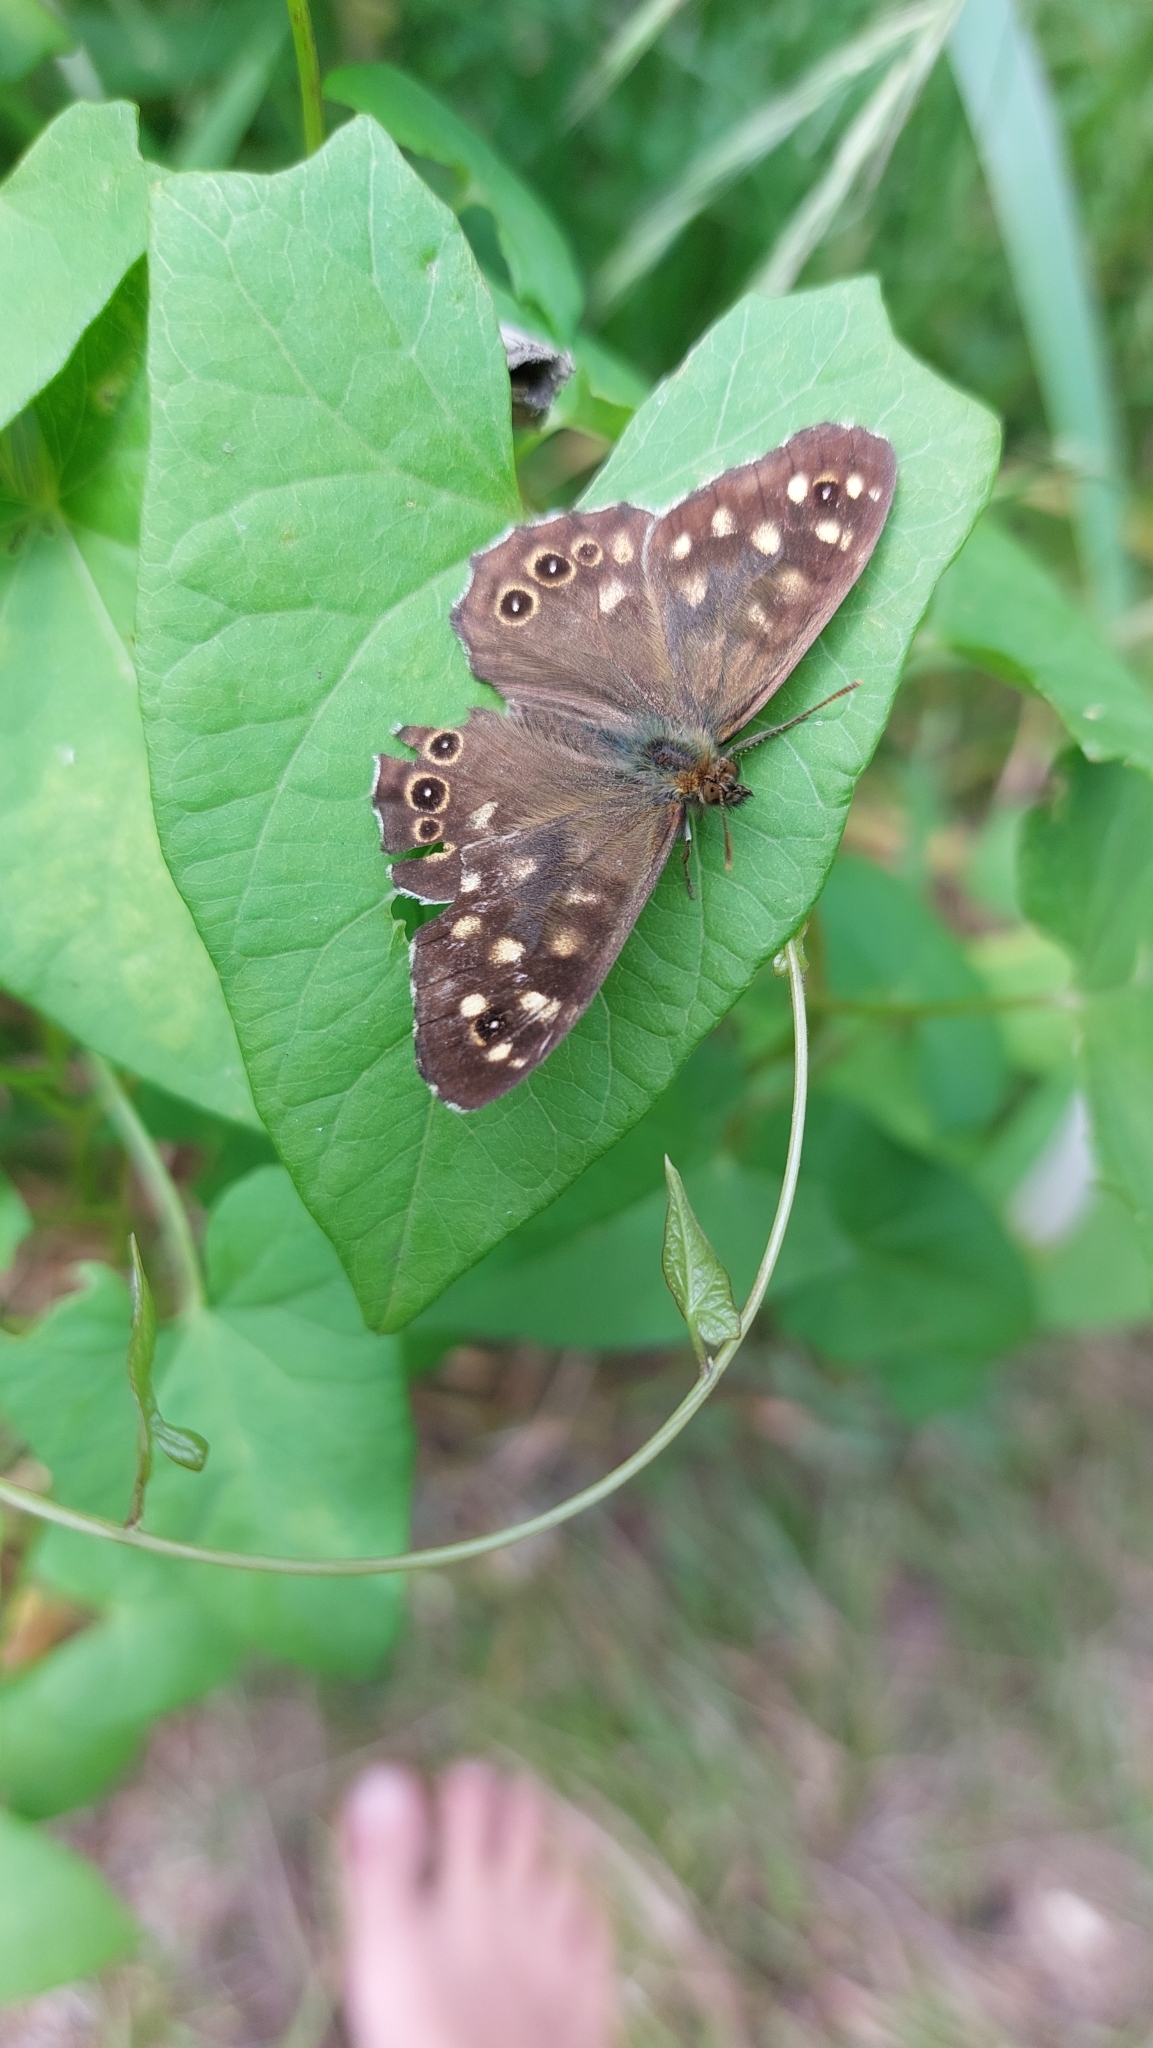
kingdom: Animalia
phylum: Arthropoda
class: Insecta
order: Lepidoptera
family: Nymphalidae
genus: Pararge
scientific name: Pararge aegeria
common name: Speckled wood
